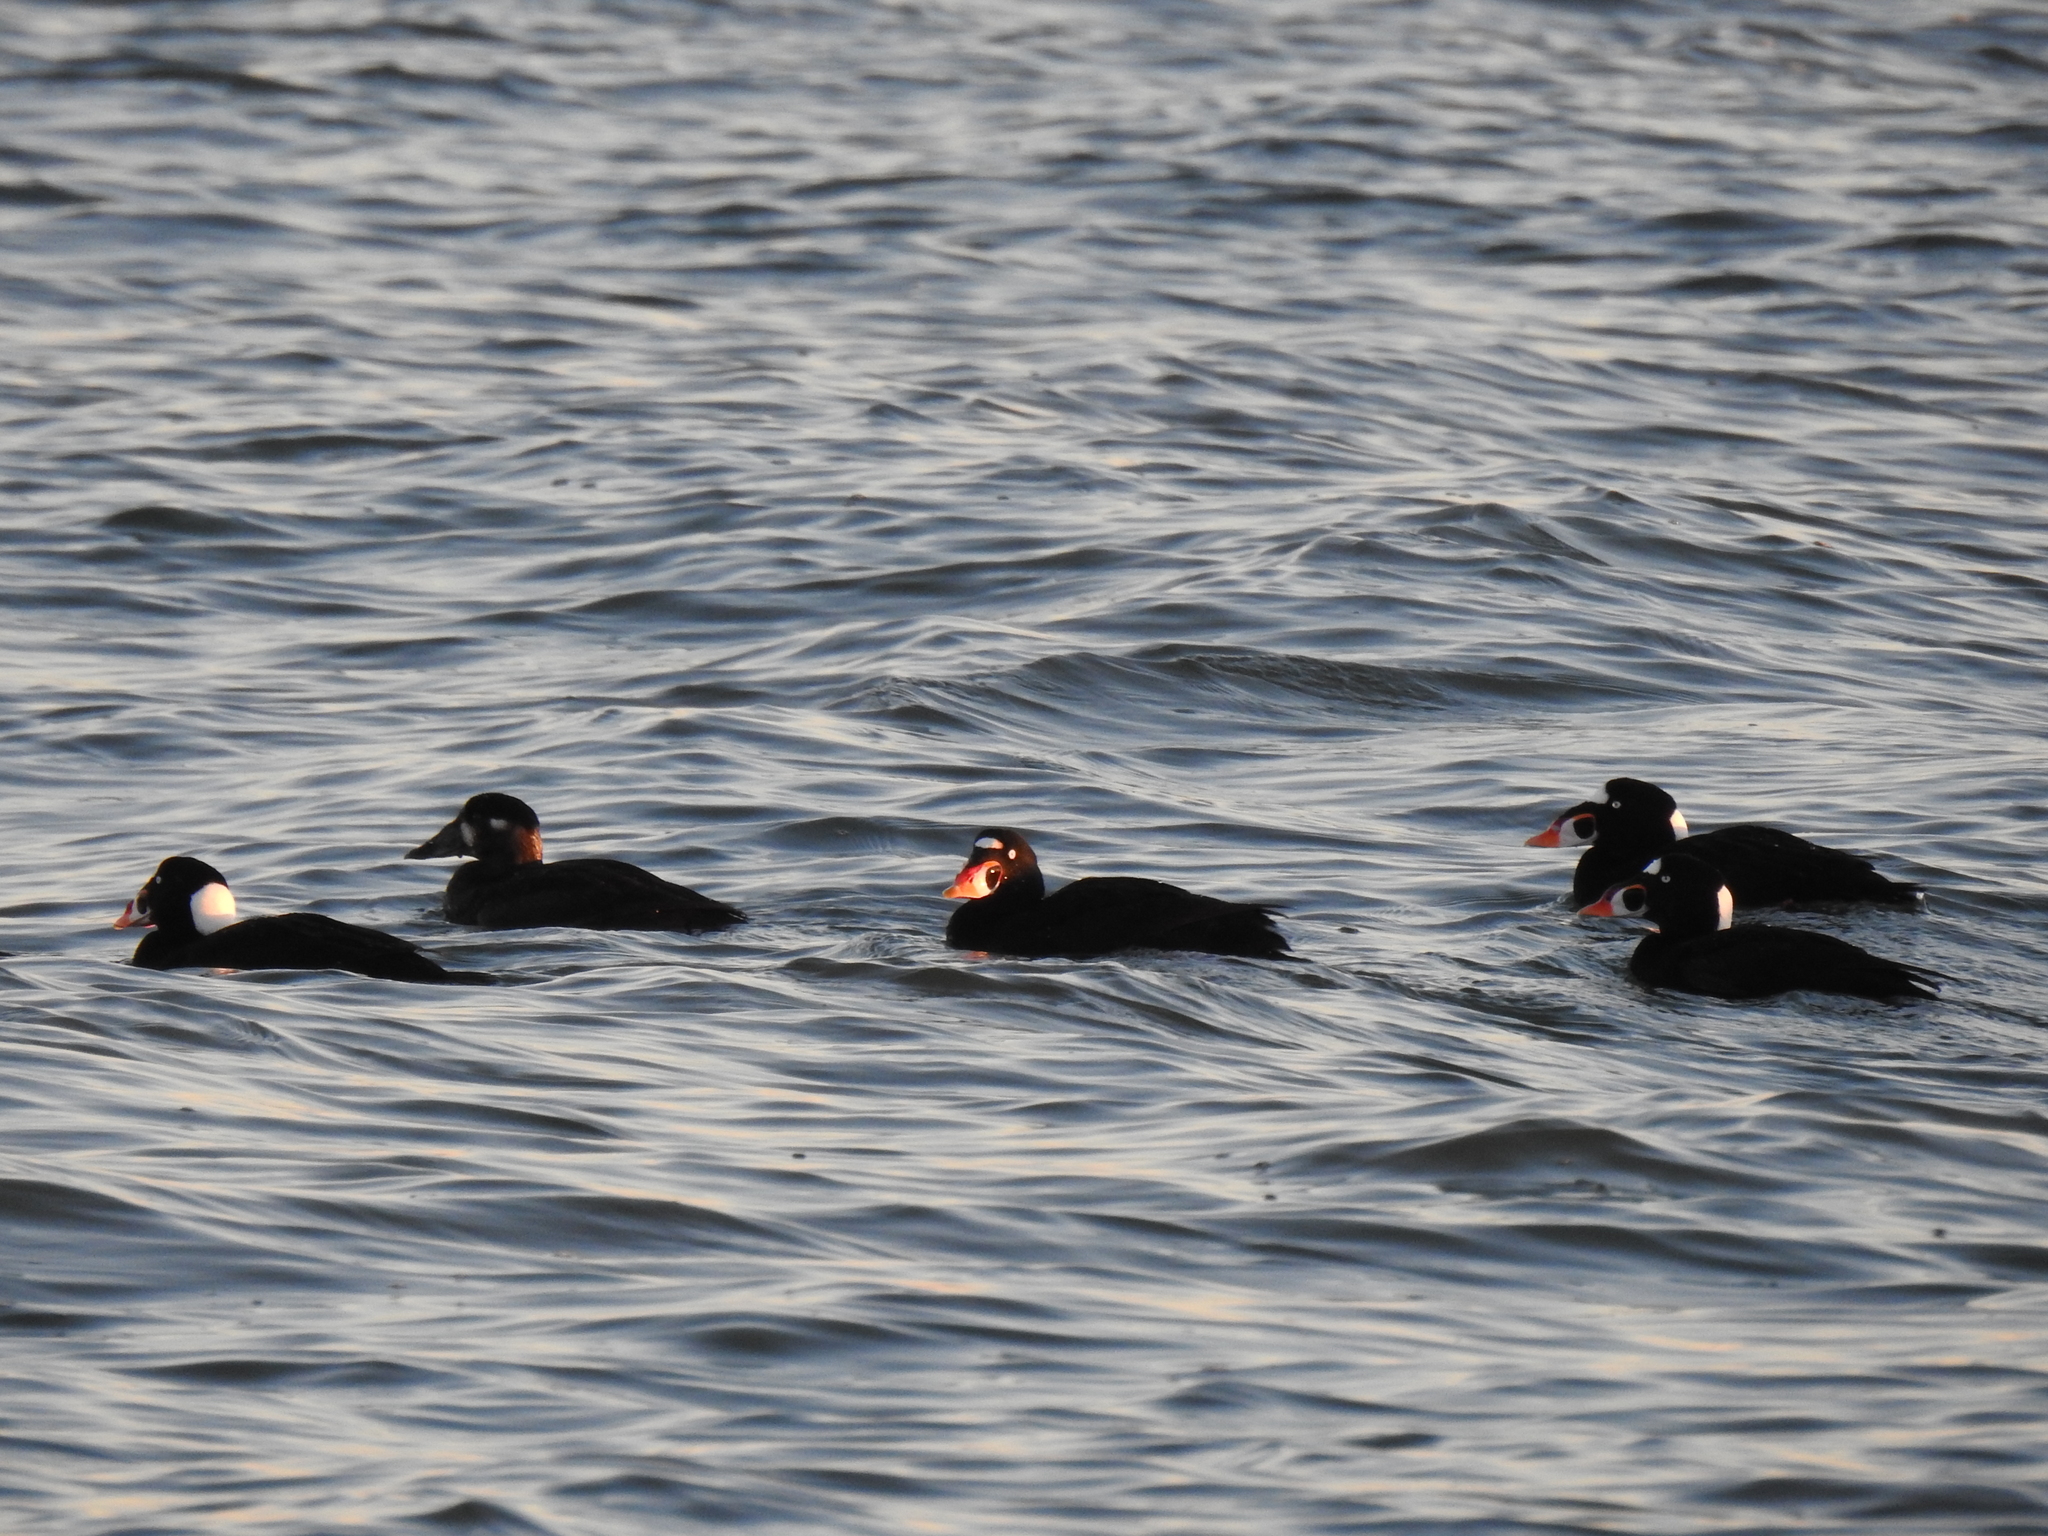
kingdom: Animalia
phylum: Chordata
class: Aves
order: Anseriformes
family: Anatidae
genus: Melanitta
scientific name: Melanitta perspicillata
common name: Surf scoter
